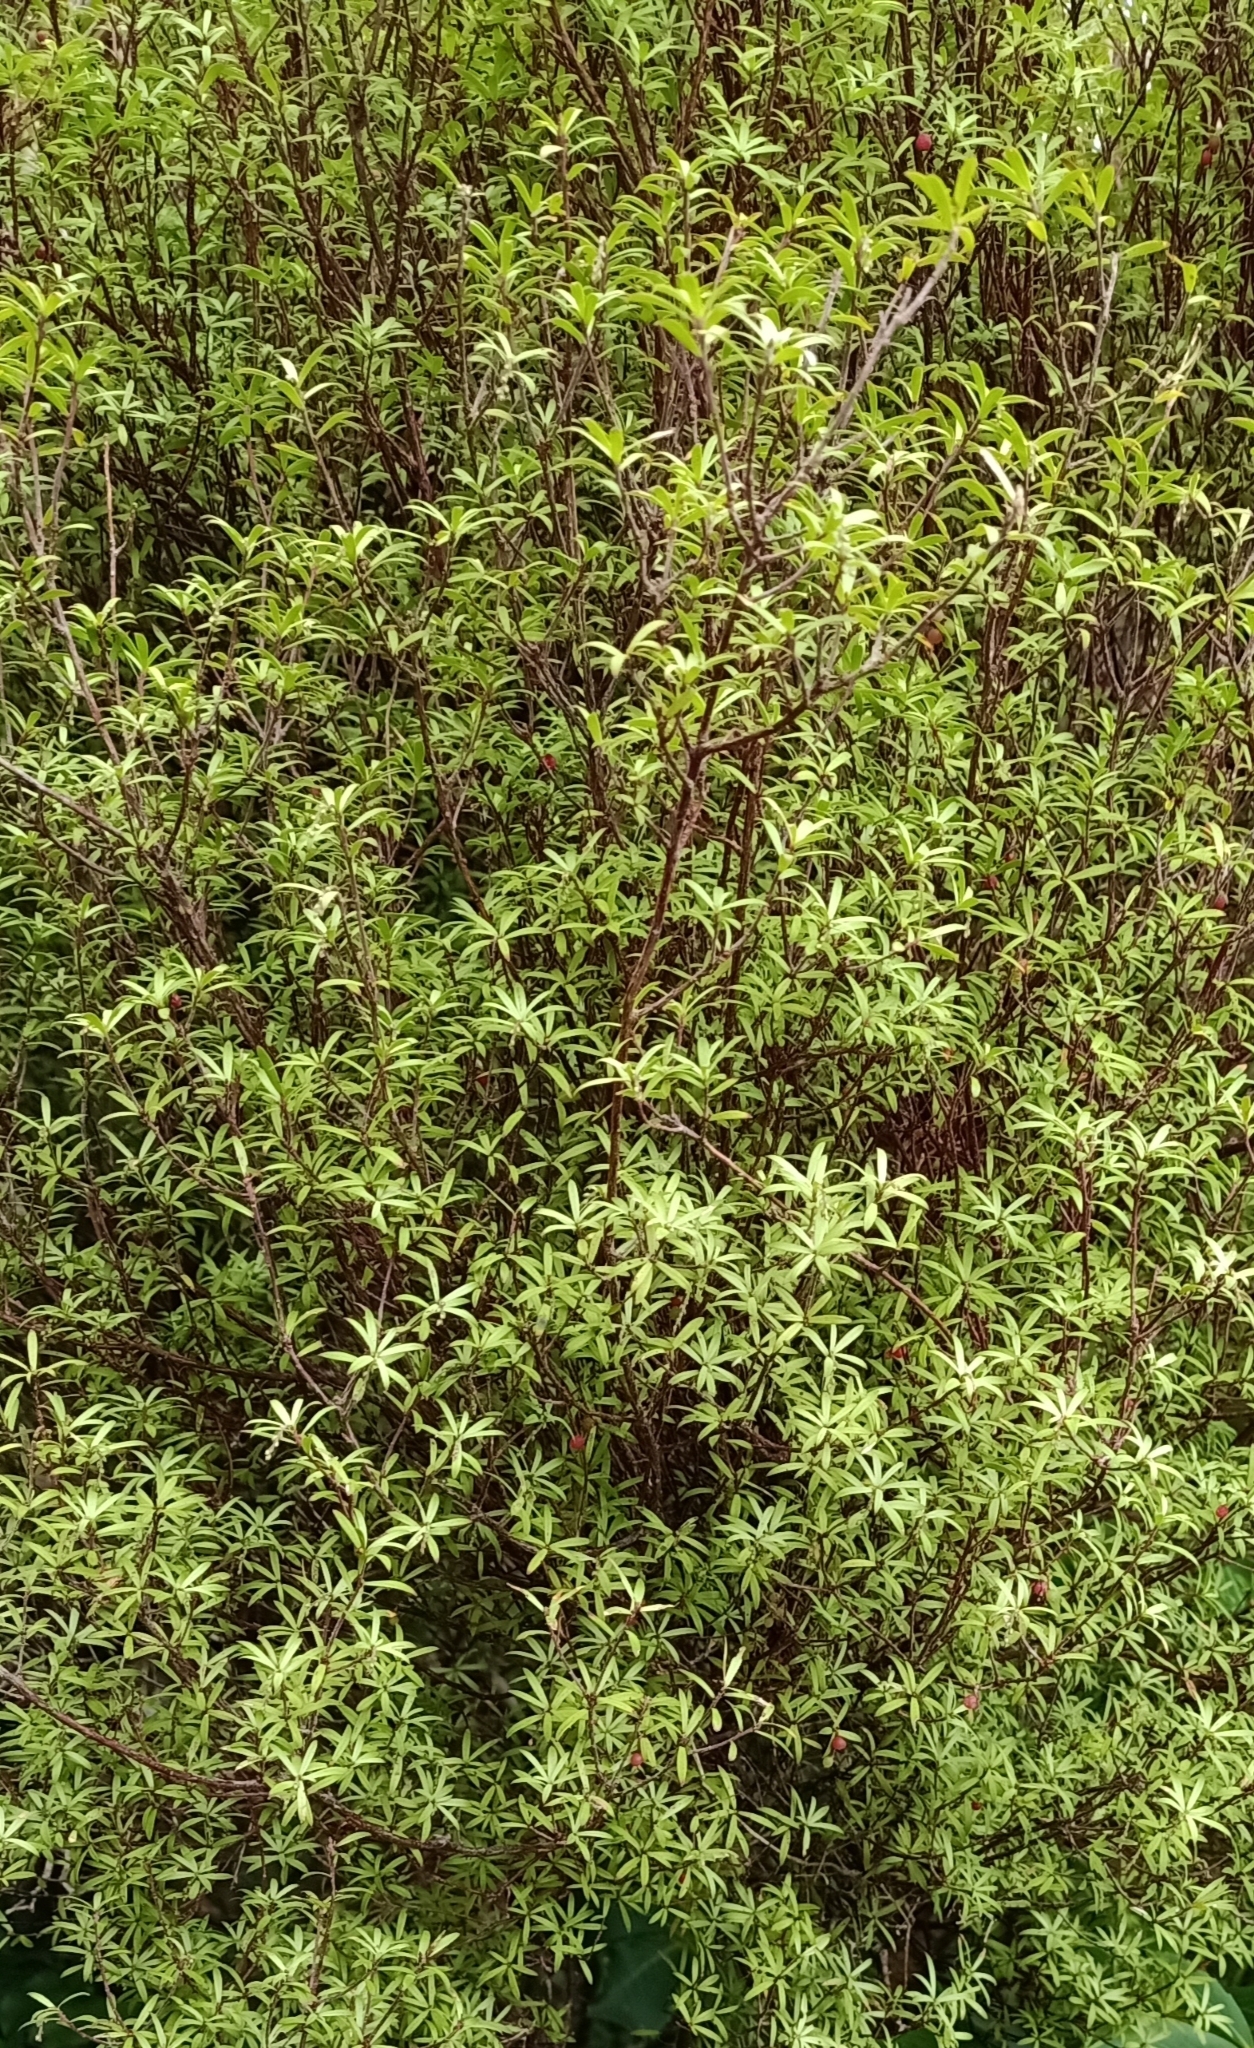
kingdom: Plantae
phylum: Tracheophyta
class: Magnoliopsida
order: Ericales
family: Ericaceae
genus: Leucopogon
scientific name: Leucopogon fasciculatus
